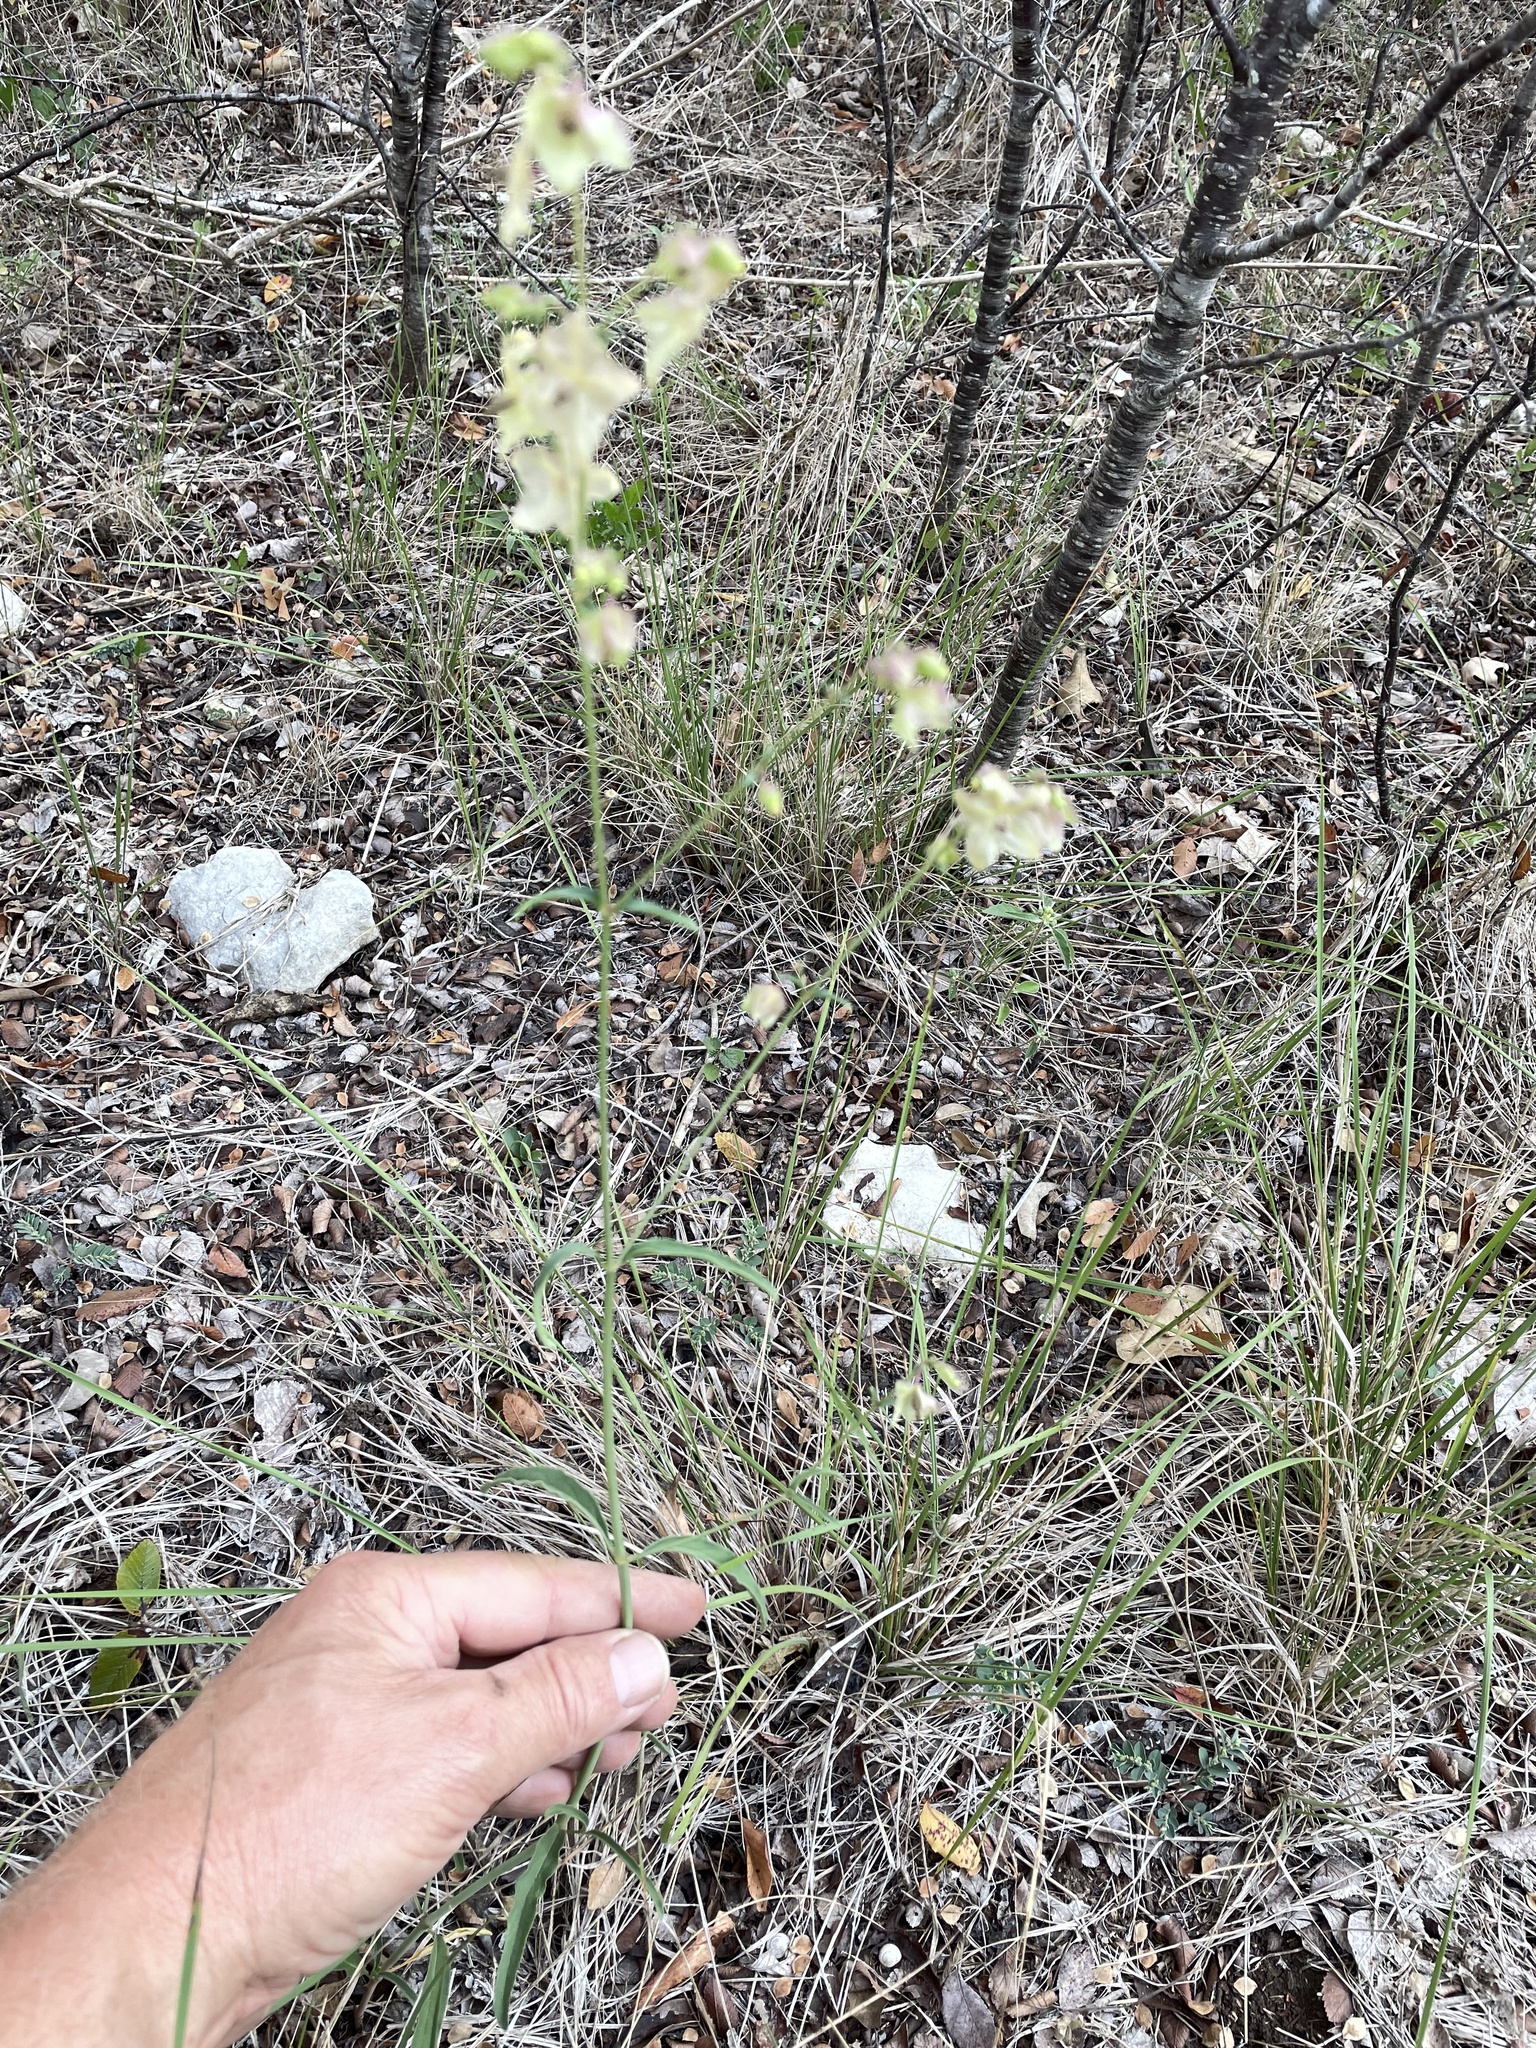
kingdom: Plantae
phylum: Tracheophyta
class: Magnoliopsida
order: Caryophyllales
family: Nyctaginaceae
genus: Mirabilis
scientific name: Mirabilis albida
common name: Hairy four-o'clock
